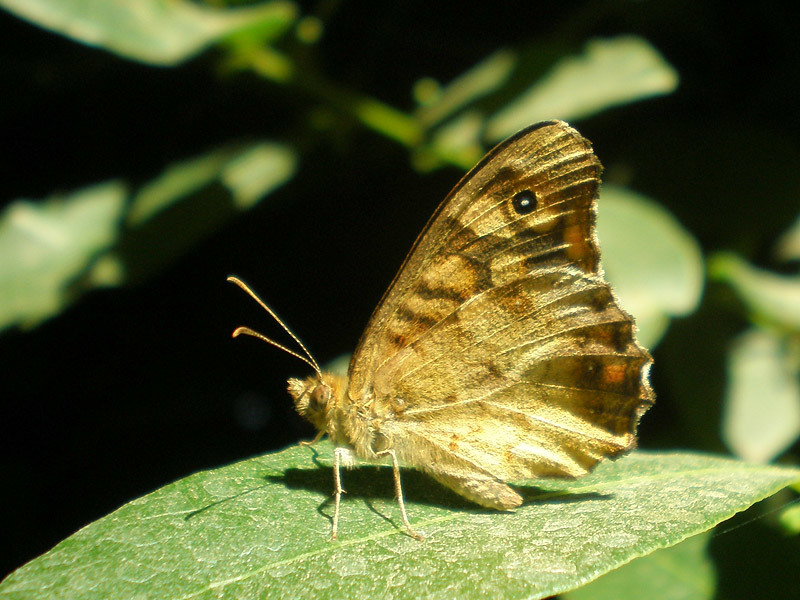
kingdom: Animalia
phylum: Arthropoda
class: Insecta
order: Lepidoptera
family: Nymphalidae
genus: Pararge
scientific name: Pararge aegeria
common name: Speckled wood
